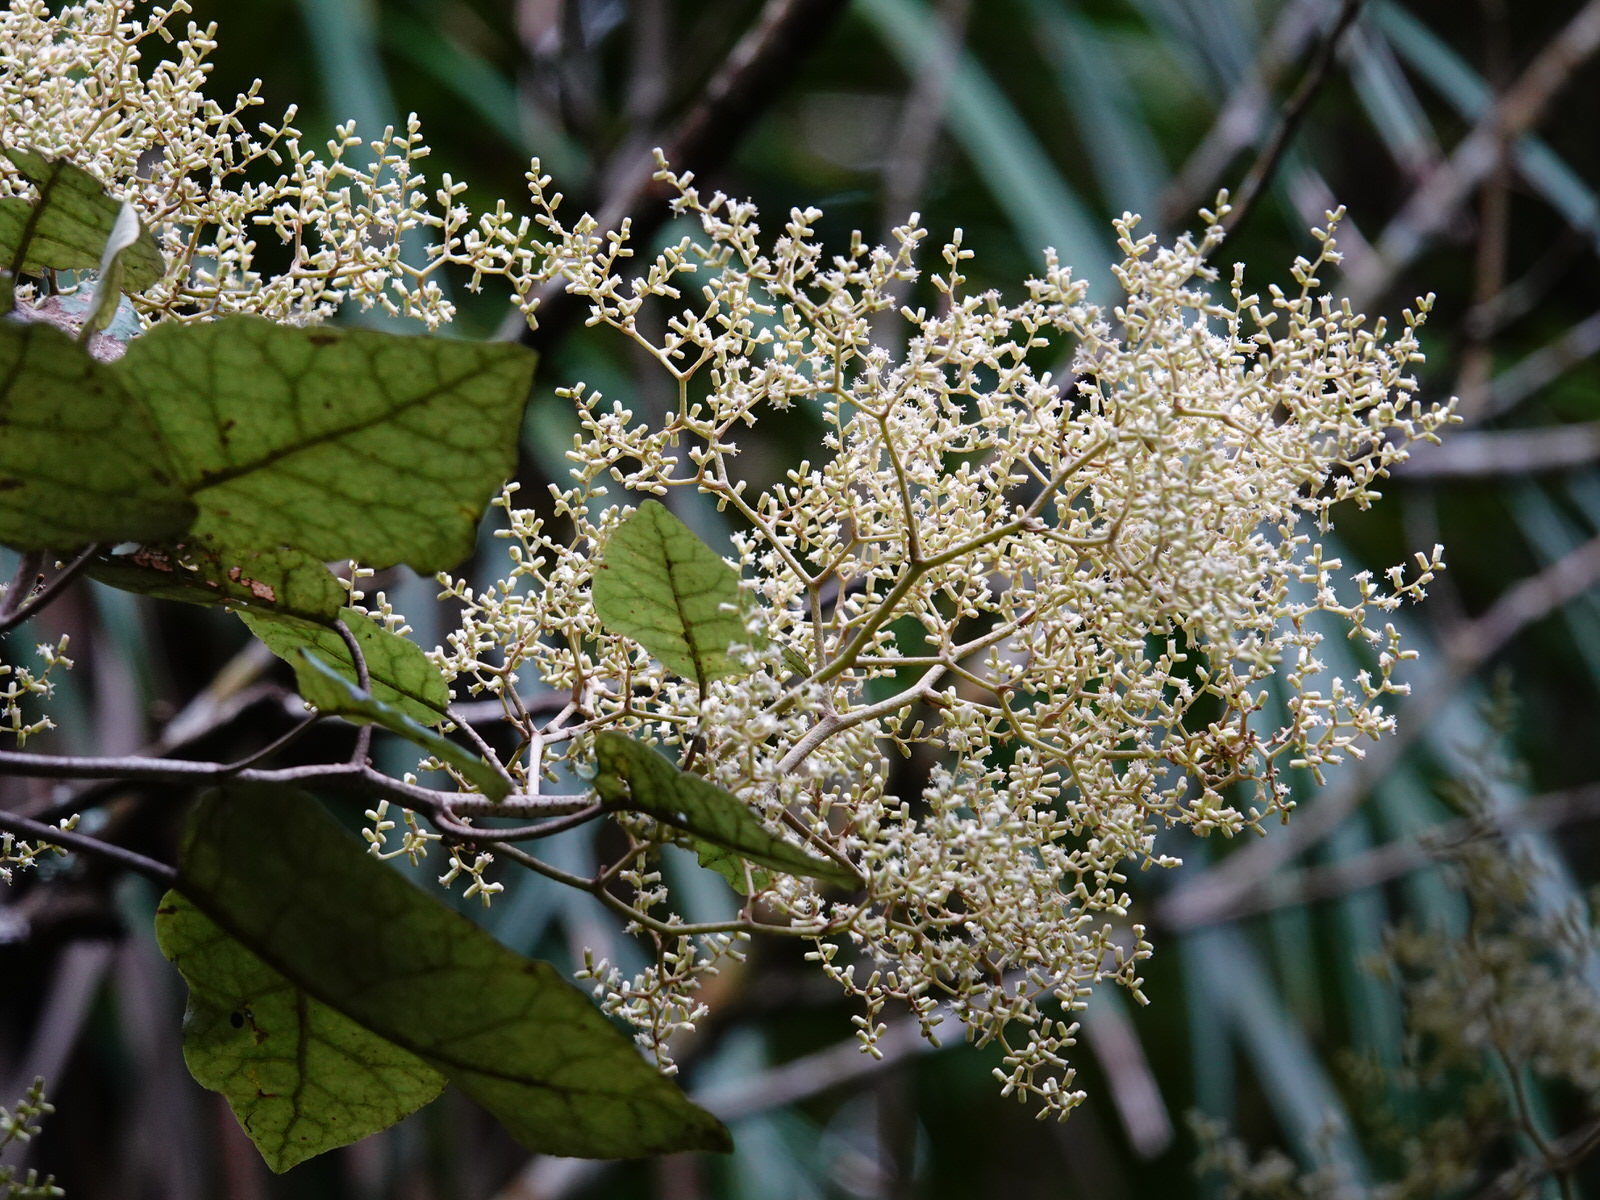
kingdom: Animalia
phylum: Arthropoda
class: Insecta
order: Coleoptera
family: Curculionidae
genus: Scolopterus
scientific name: Scolopterus aequus
